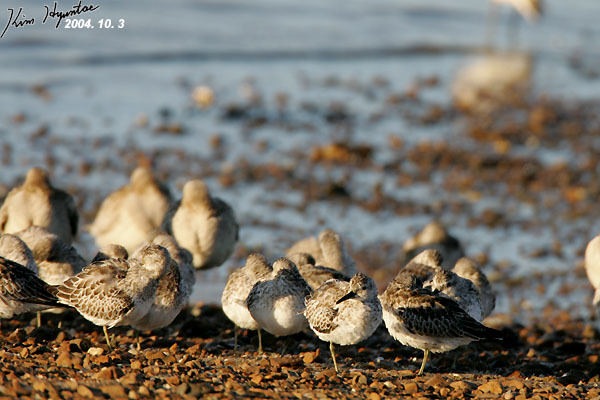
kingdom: Animalia
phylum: Chordata
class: Aves
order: Charadriiformes
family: Scolopacidae
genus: Calidris
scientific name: Calidris tenuirostris
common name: Great knot
